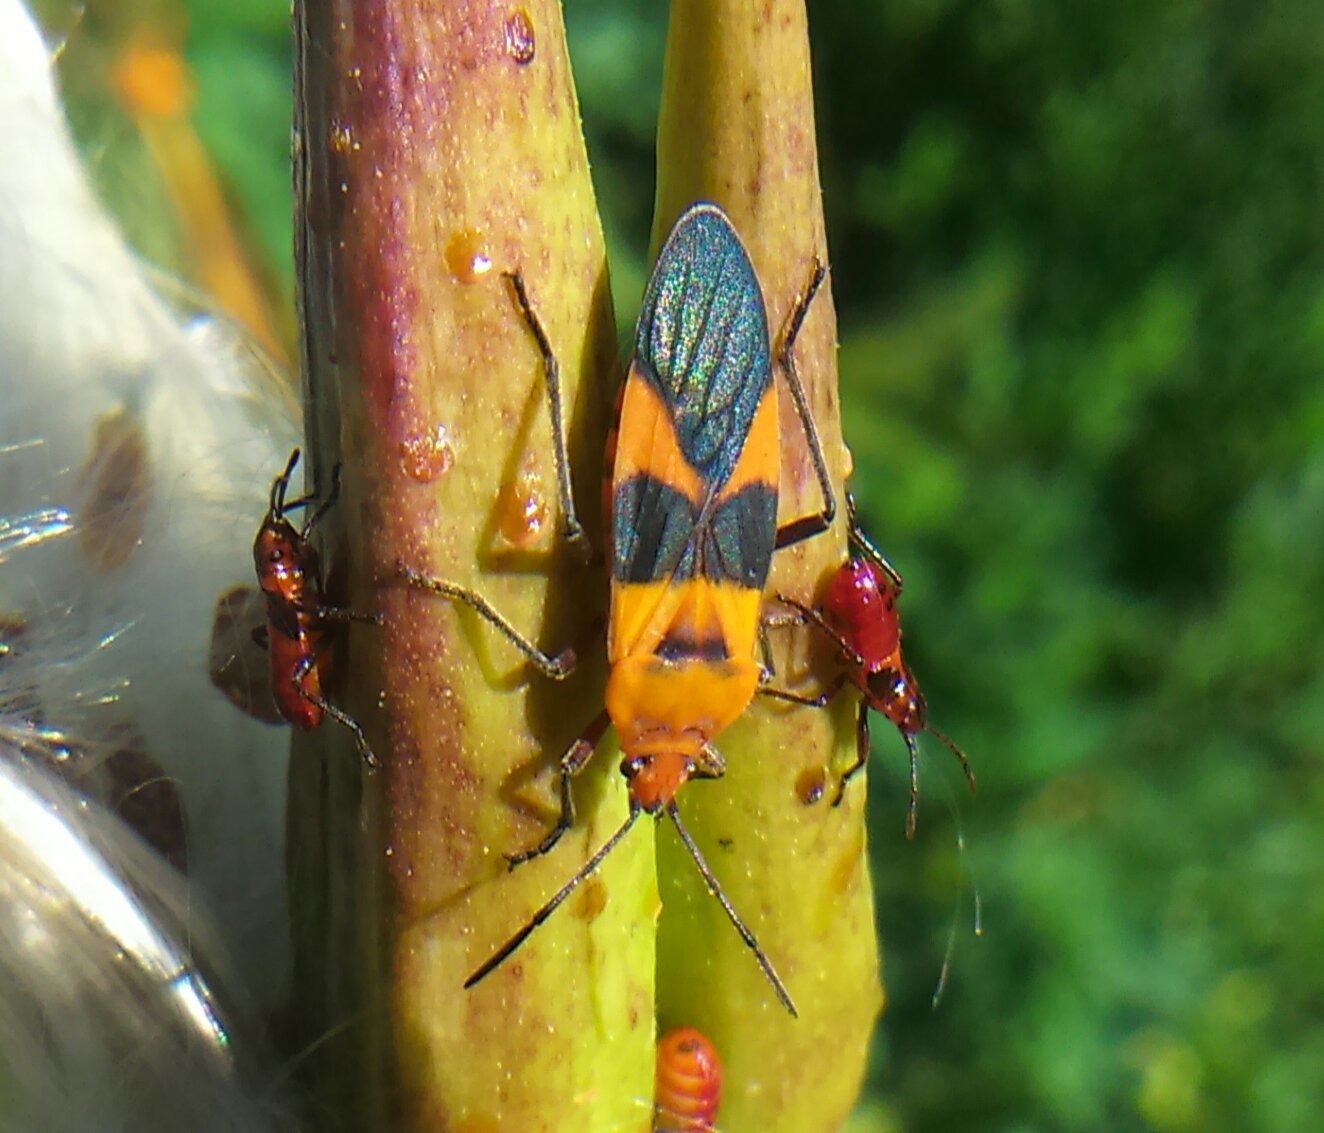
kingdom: Animalia
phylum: Arthropoda
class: Insecta
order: Hemiptera
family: Lygaeidae
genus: Oncopeltus
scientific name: Oncopeltus zonatus
